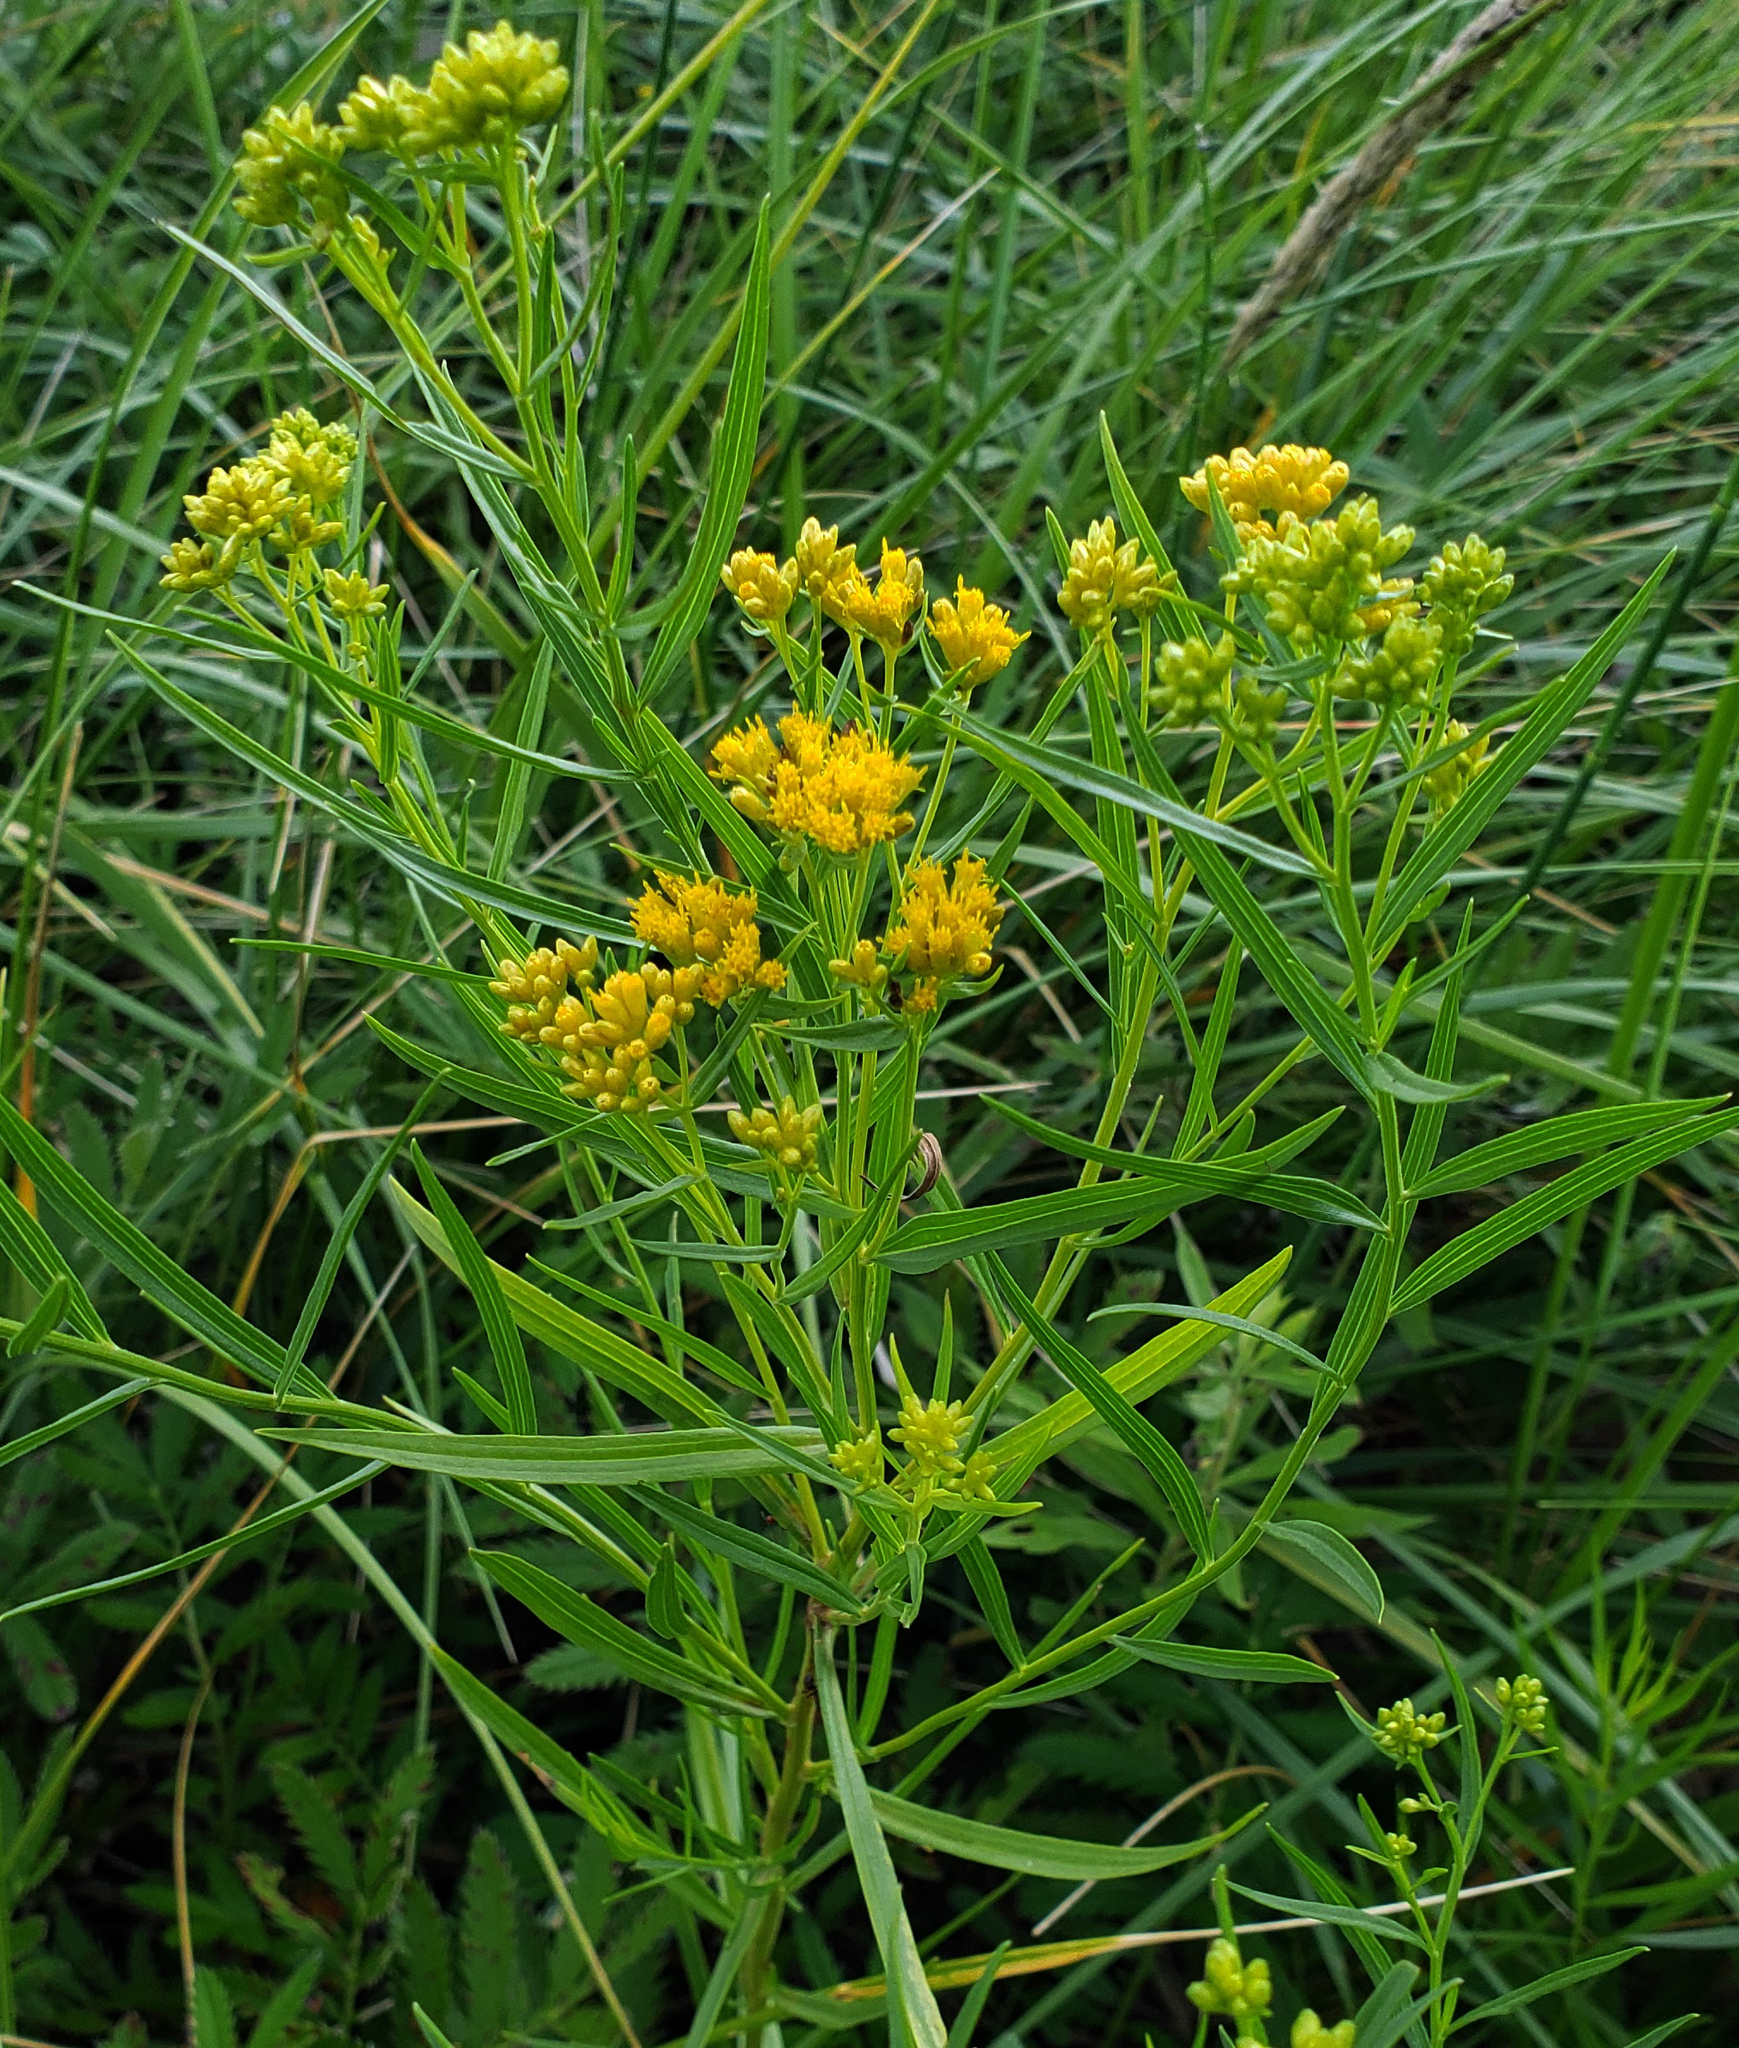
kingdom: Plantae
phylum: Tracheophyta
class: Magnoliopsida
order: Asterales
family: Asteraceae
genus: Euthamia
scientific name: Euthamia graminifolia
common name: Common goldentop
